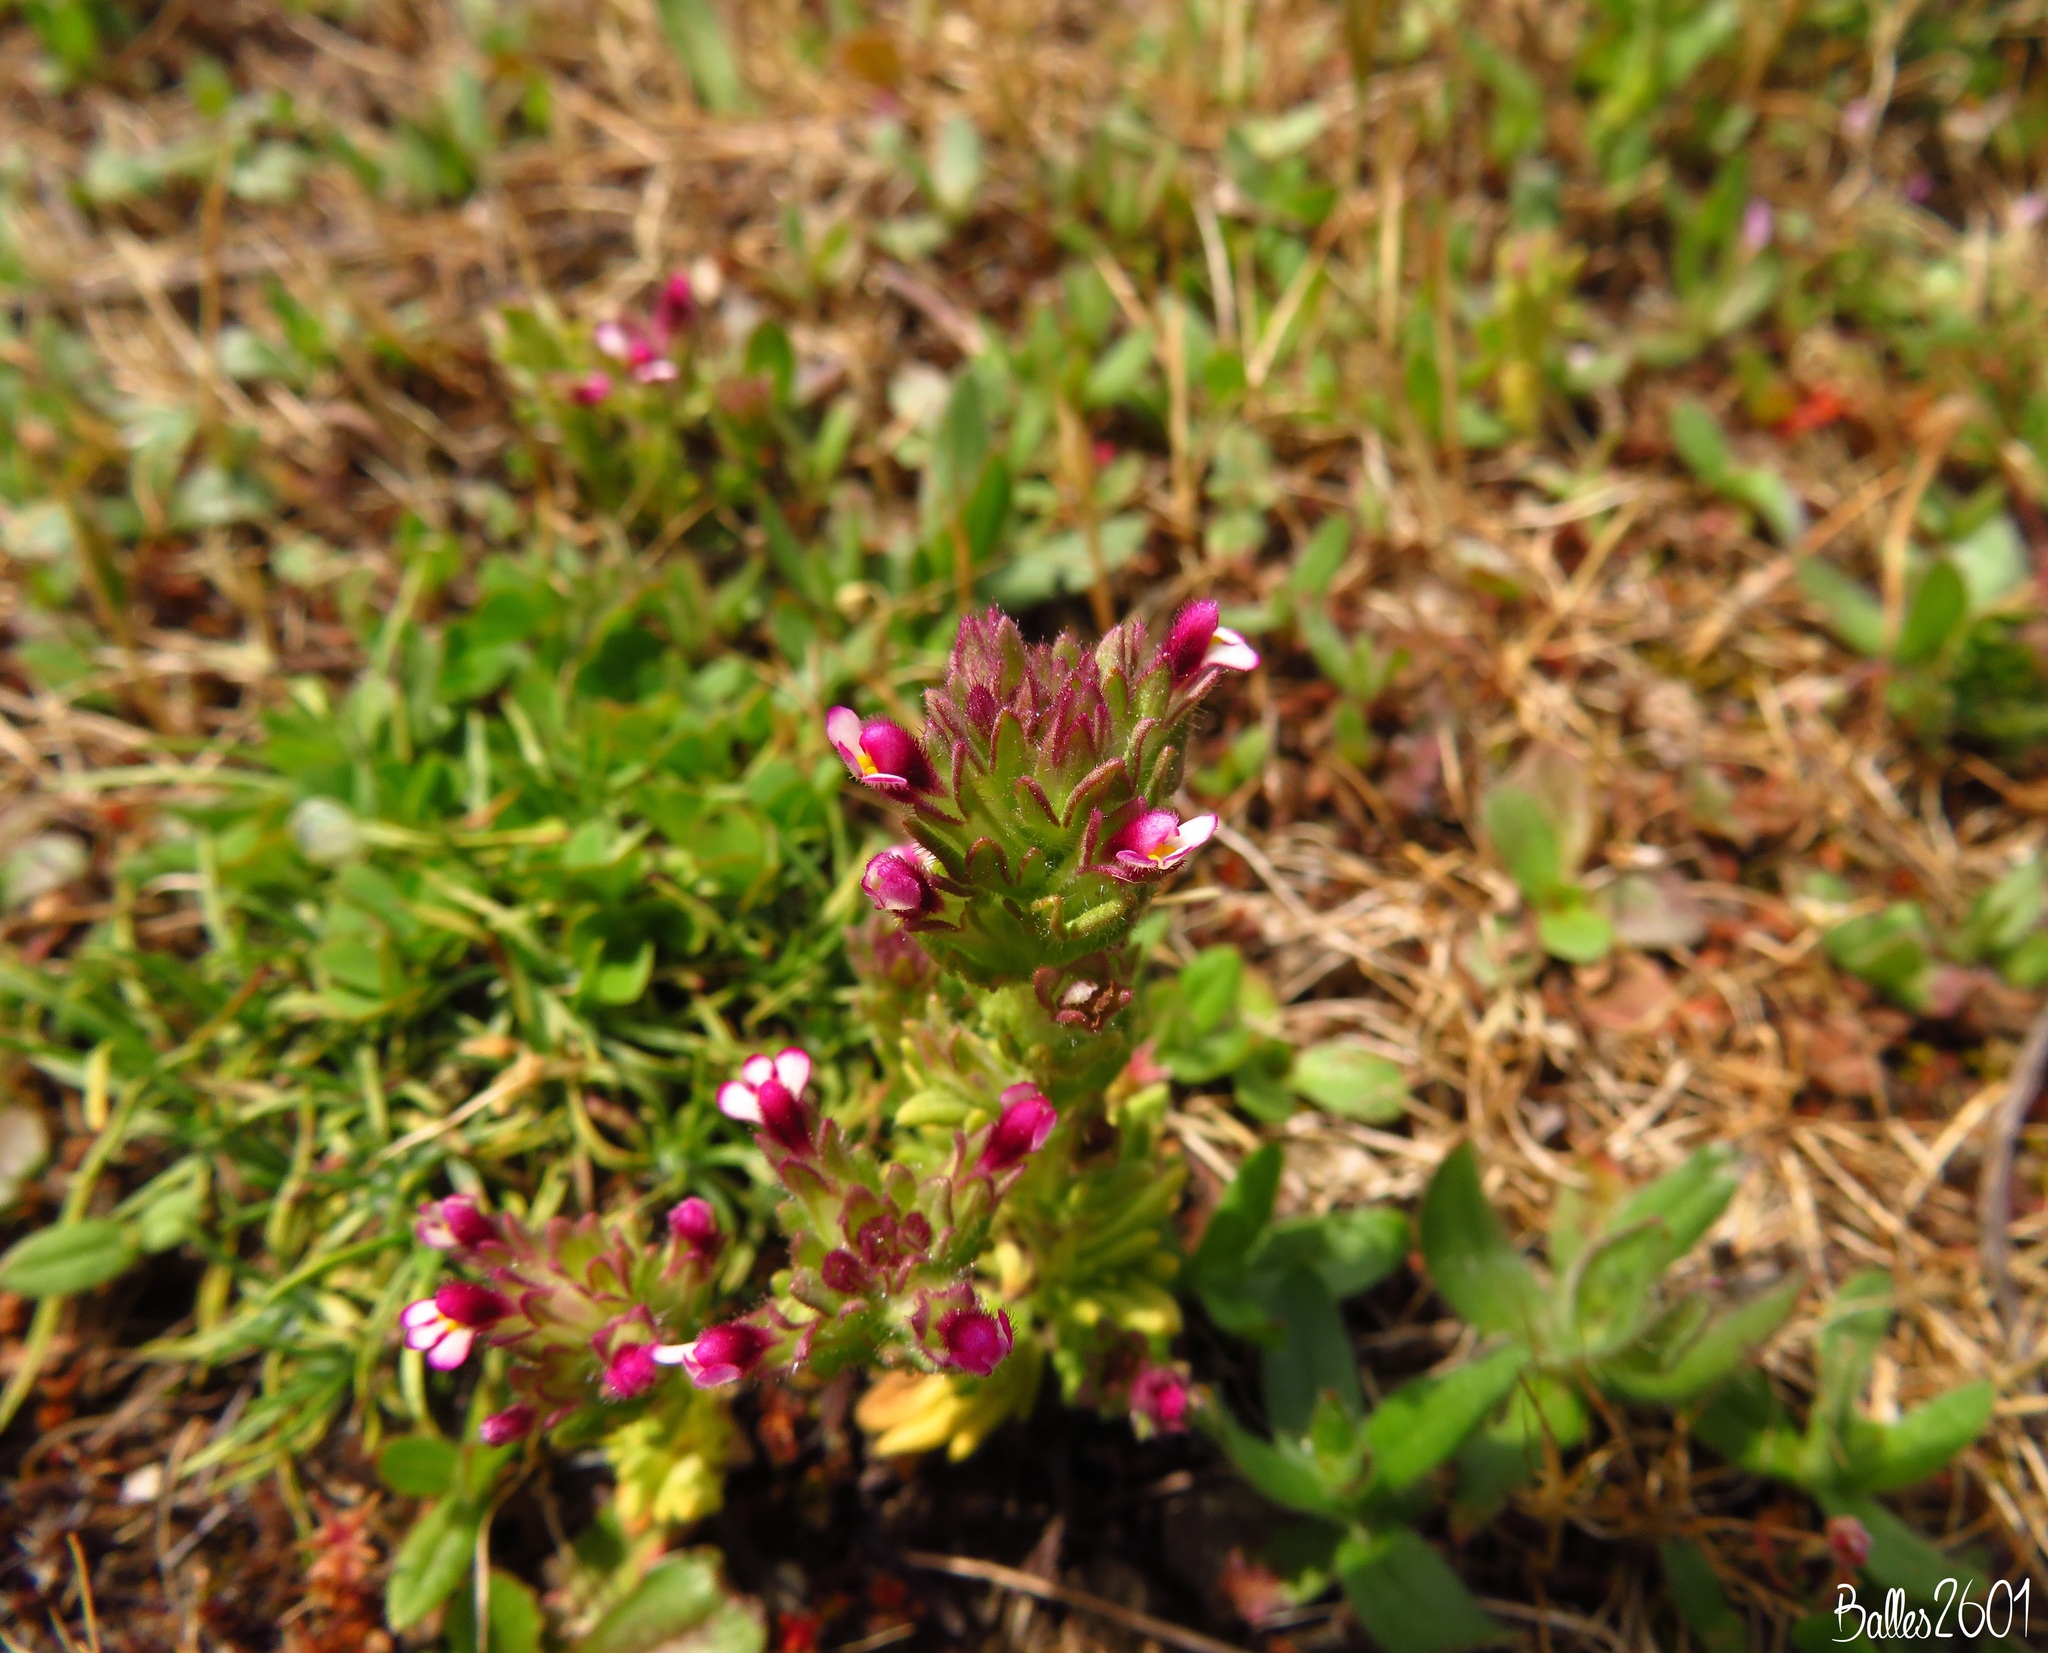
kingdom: Plantae
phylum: Tracheophyta
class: Magnoliopsida
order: Lamiales
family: Orobanchaceae
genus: Parentucellia
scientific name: Parentucellia latifolia
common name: Broadleaf glandweed
